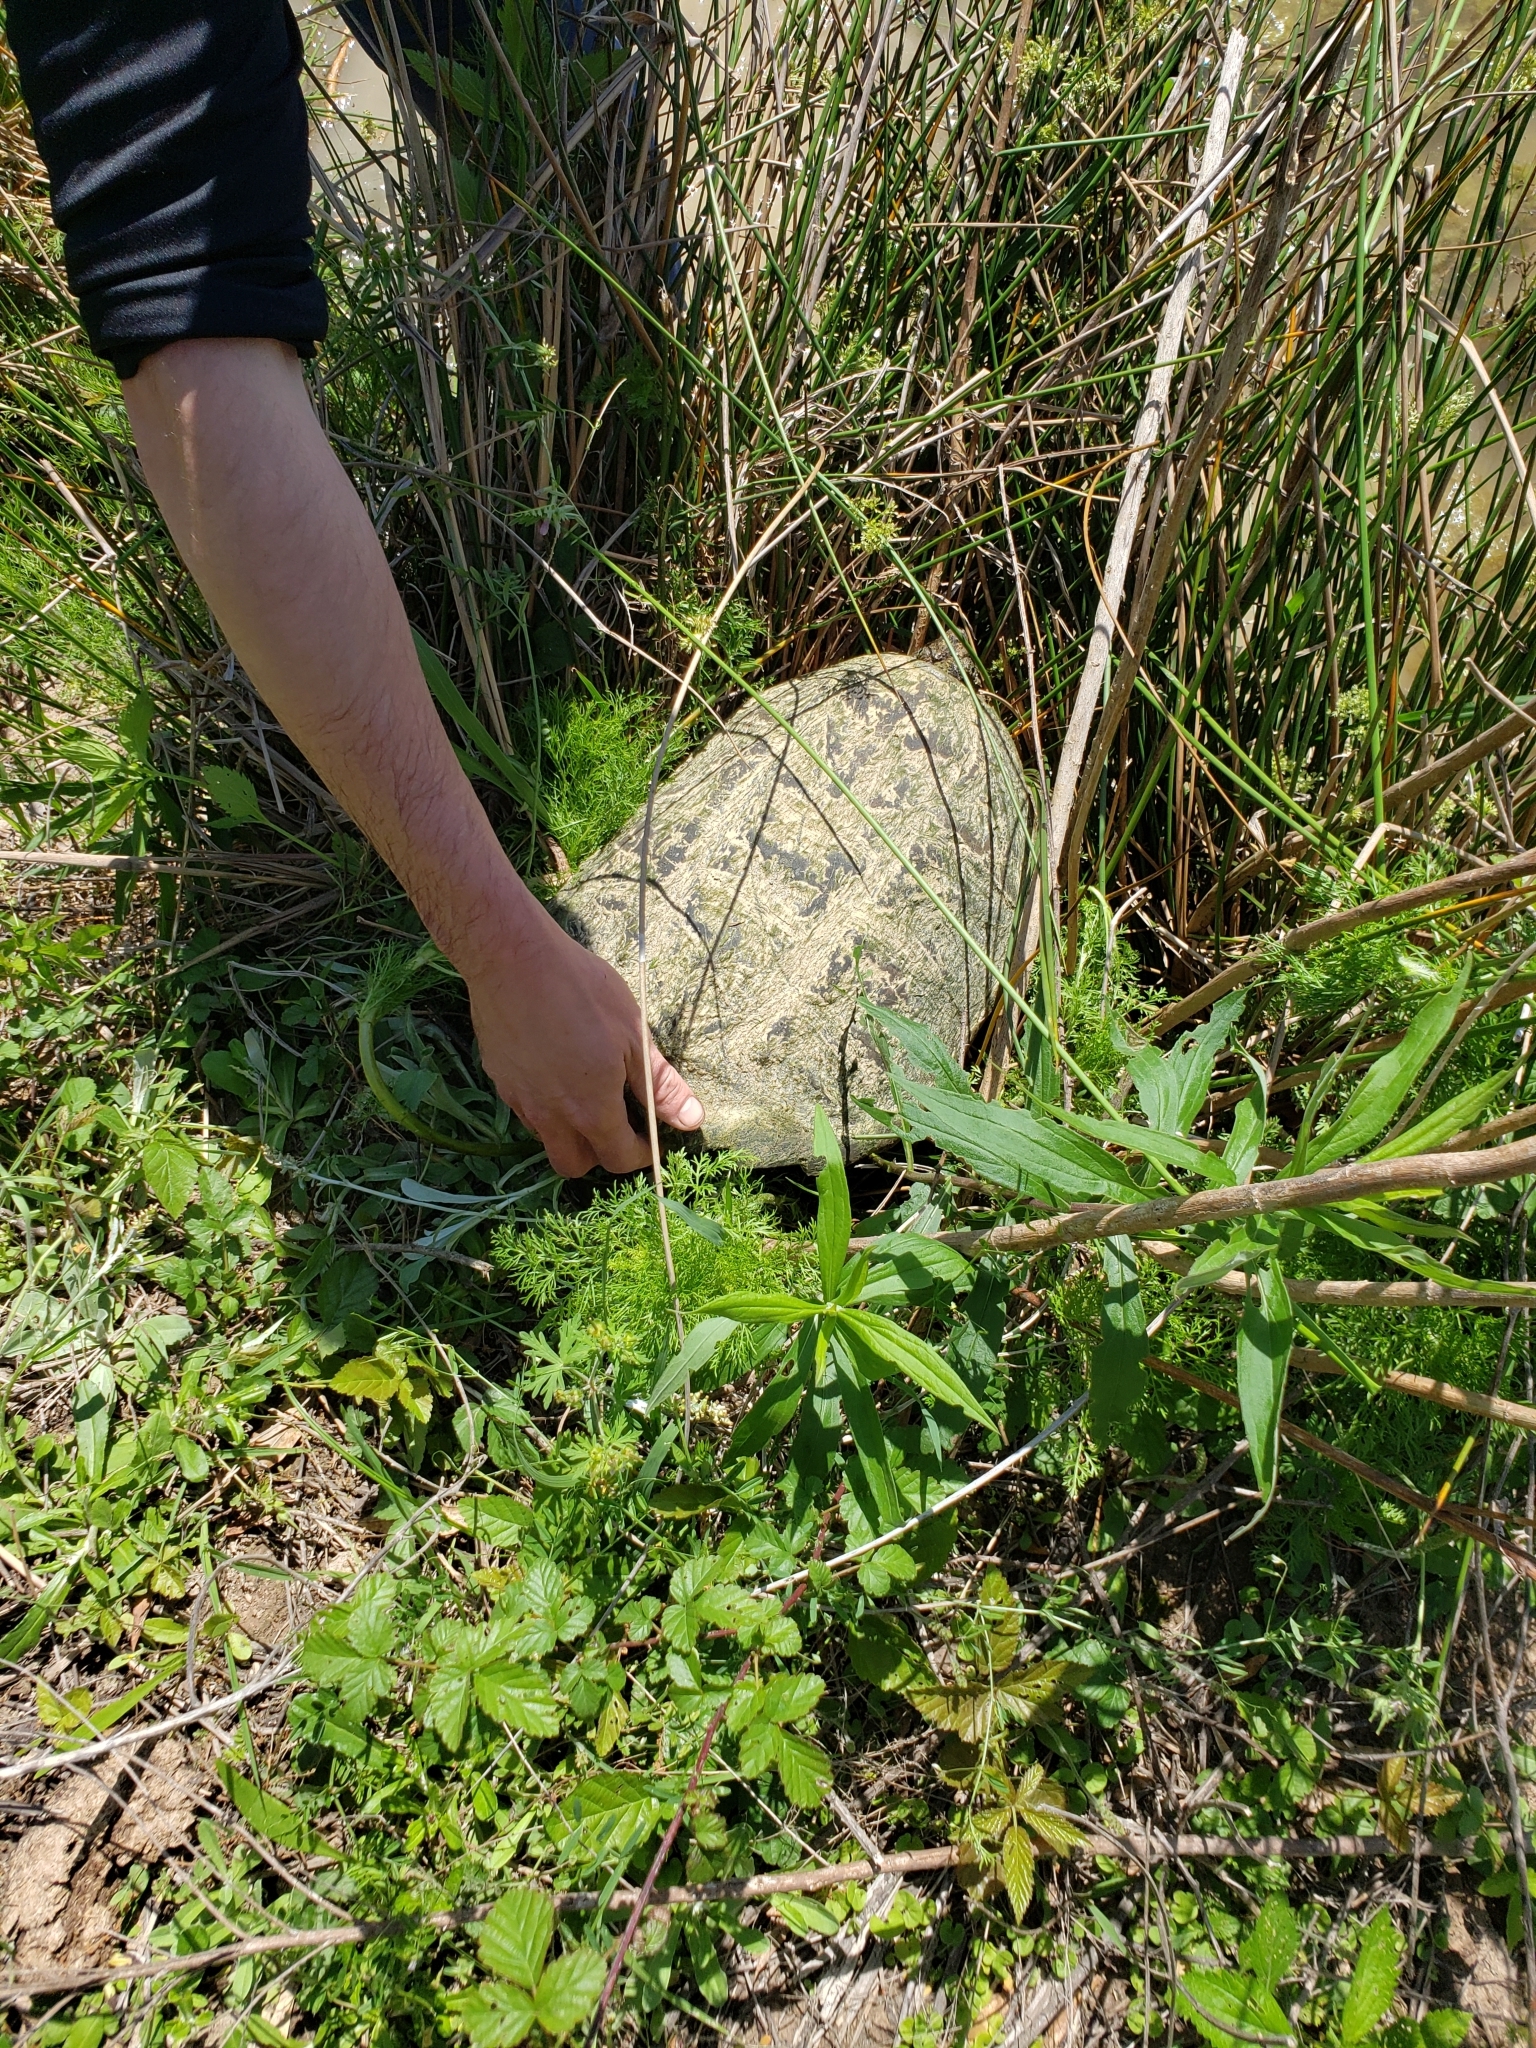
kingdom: Animalia
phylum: Chordata
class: Testudines
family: Chelydridae
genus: Chelydra
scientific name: Chelydra serpentina
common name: Common snapping turtle
